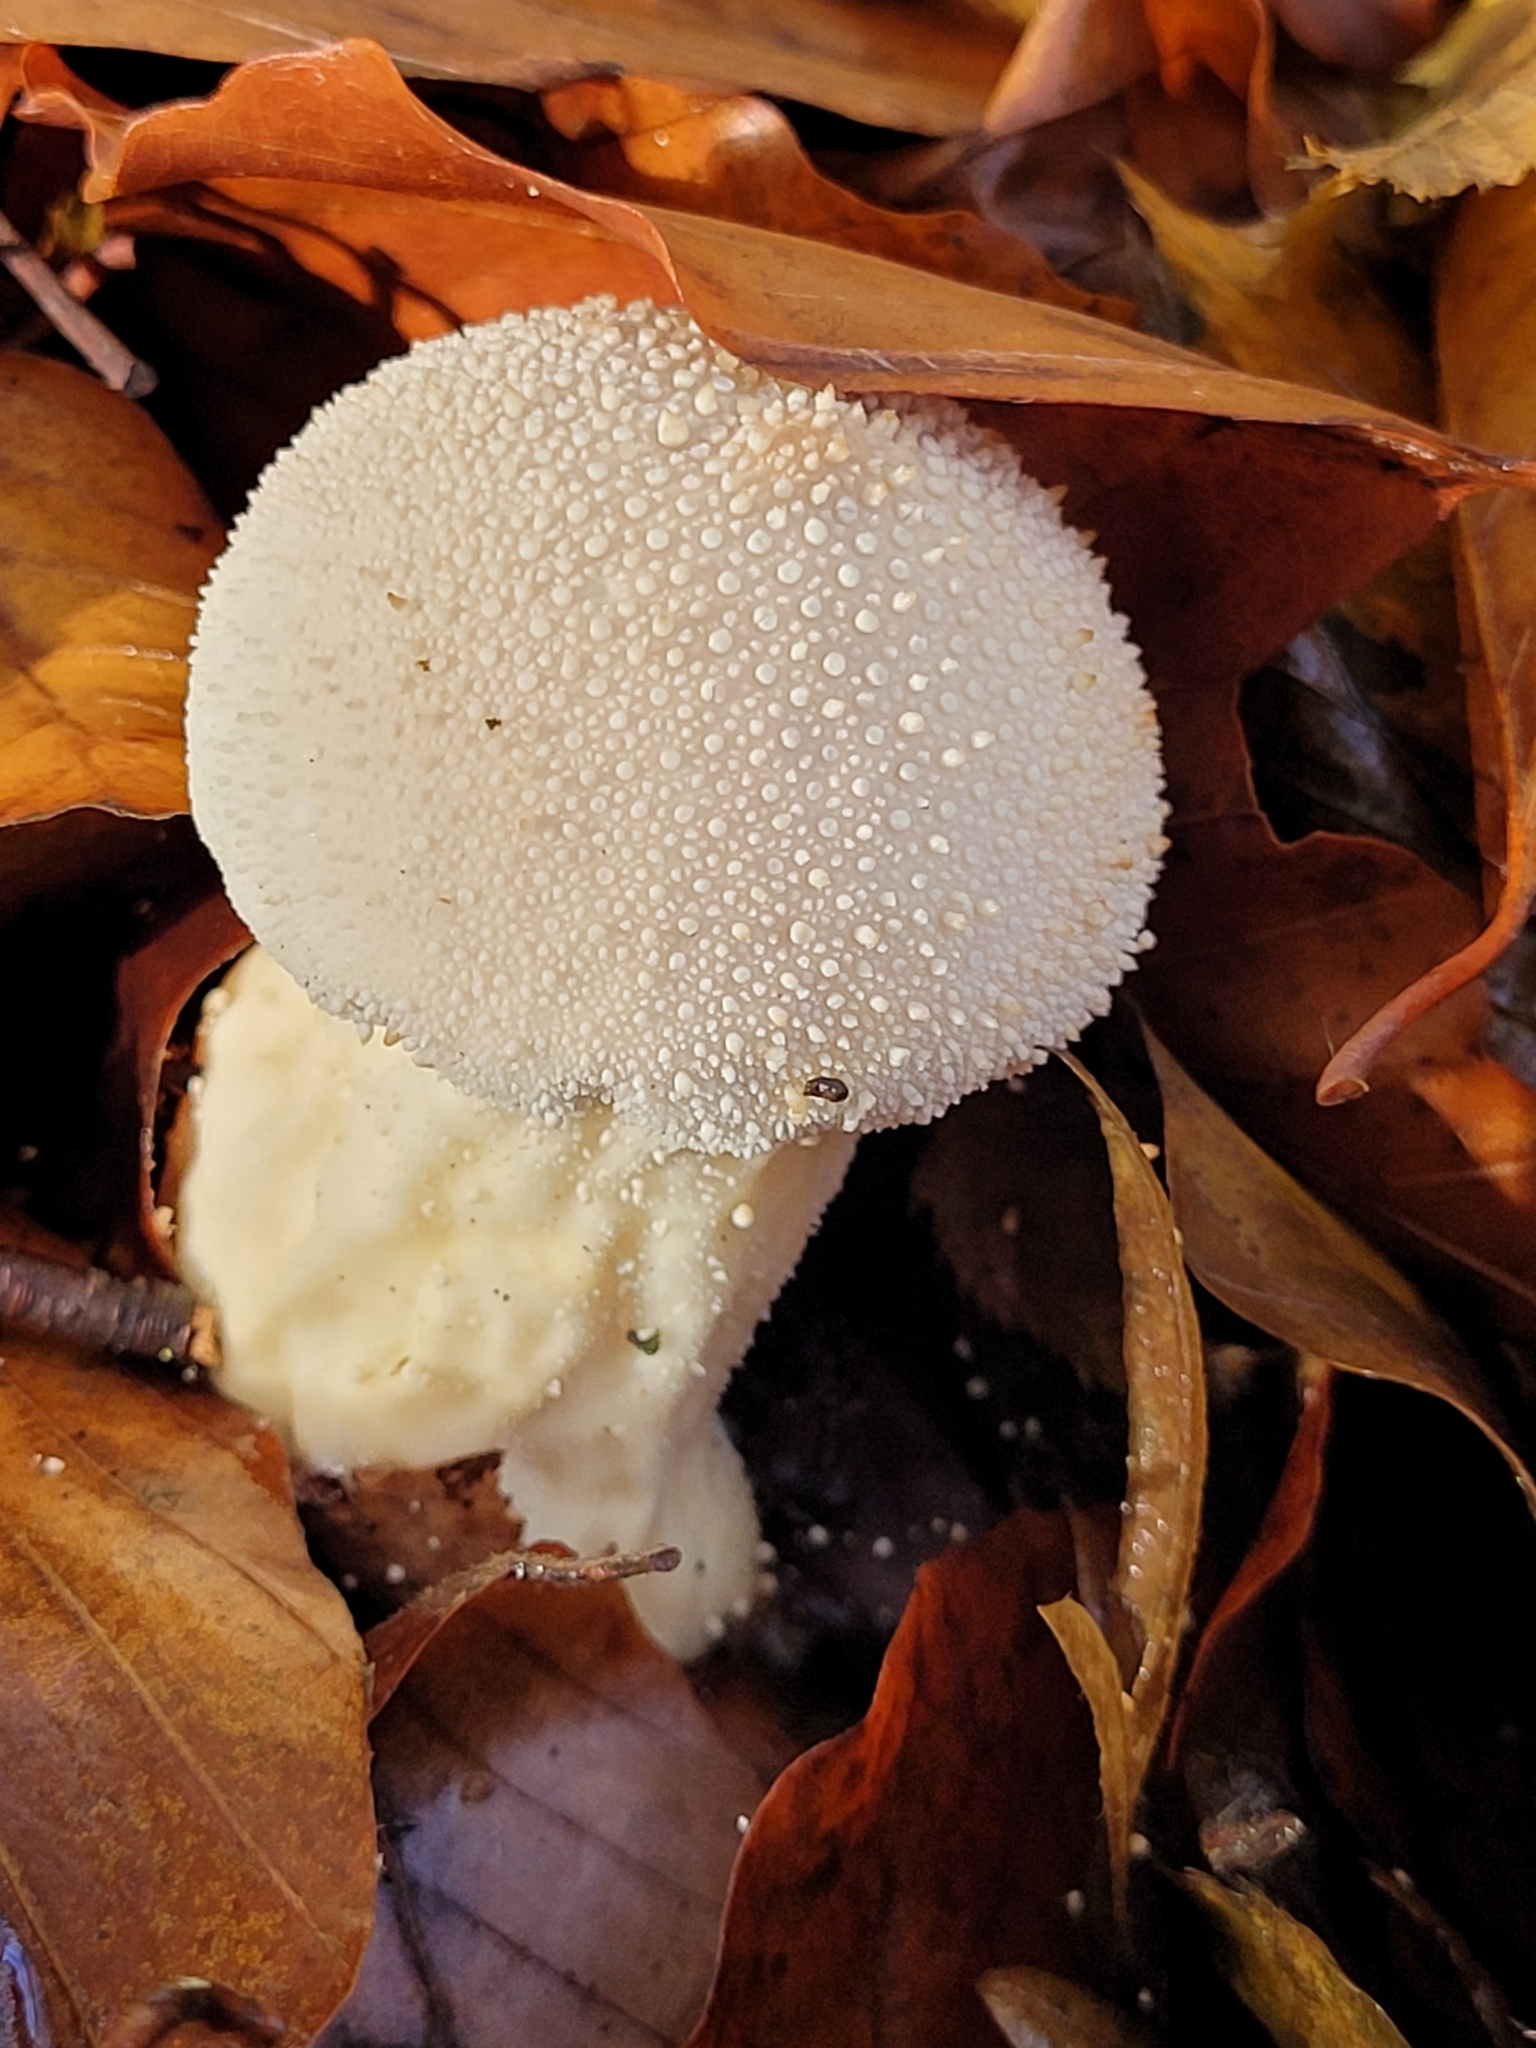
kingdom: Fungi
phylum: Basidiomycota
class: Agaricomycetes
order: Agaricales
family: Lycoperdaceae
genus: Lycoperdon
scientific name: Lycoperdon perlatum
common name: Common puffball
